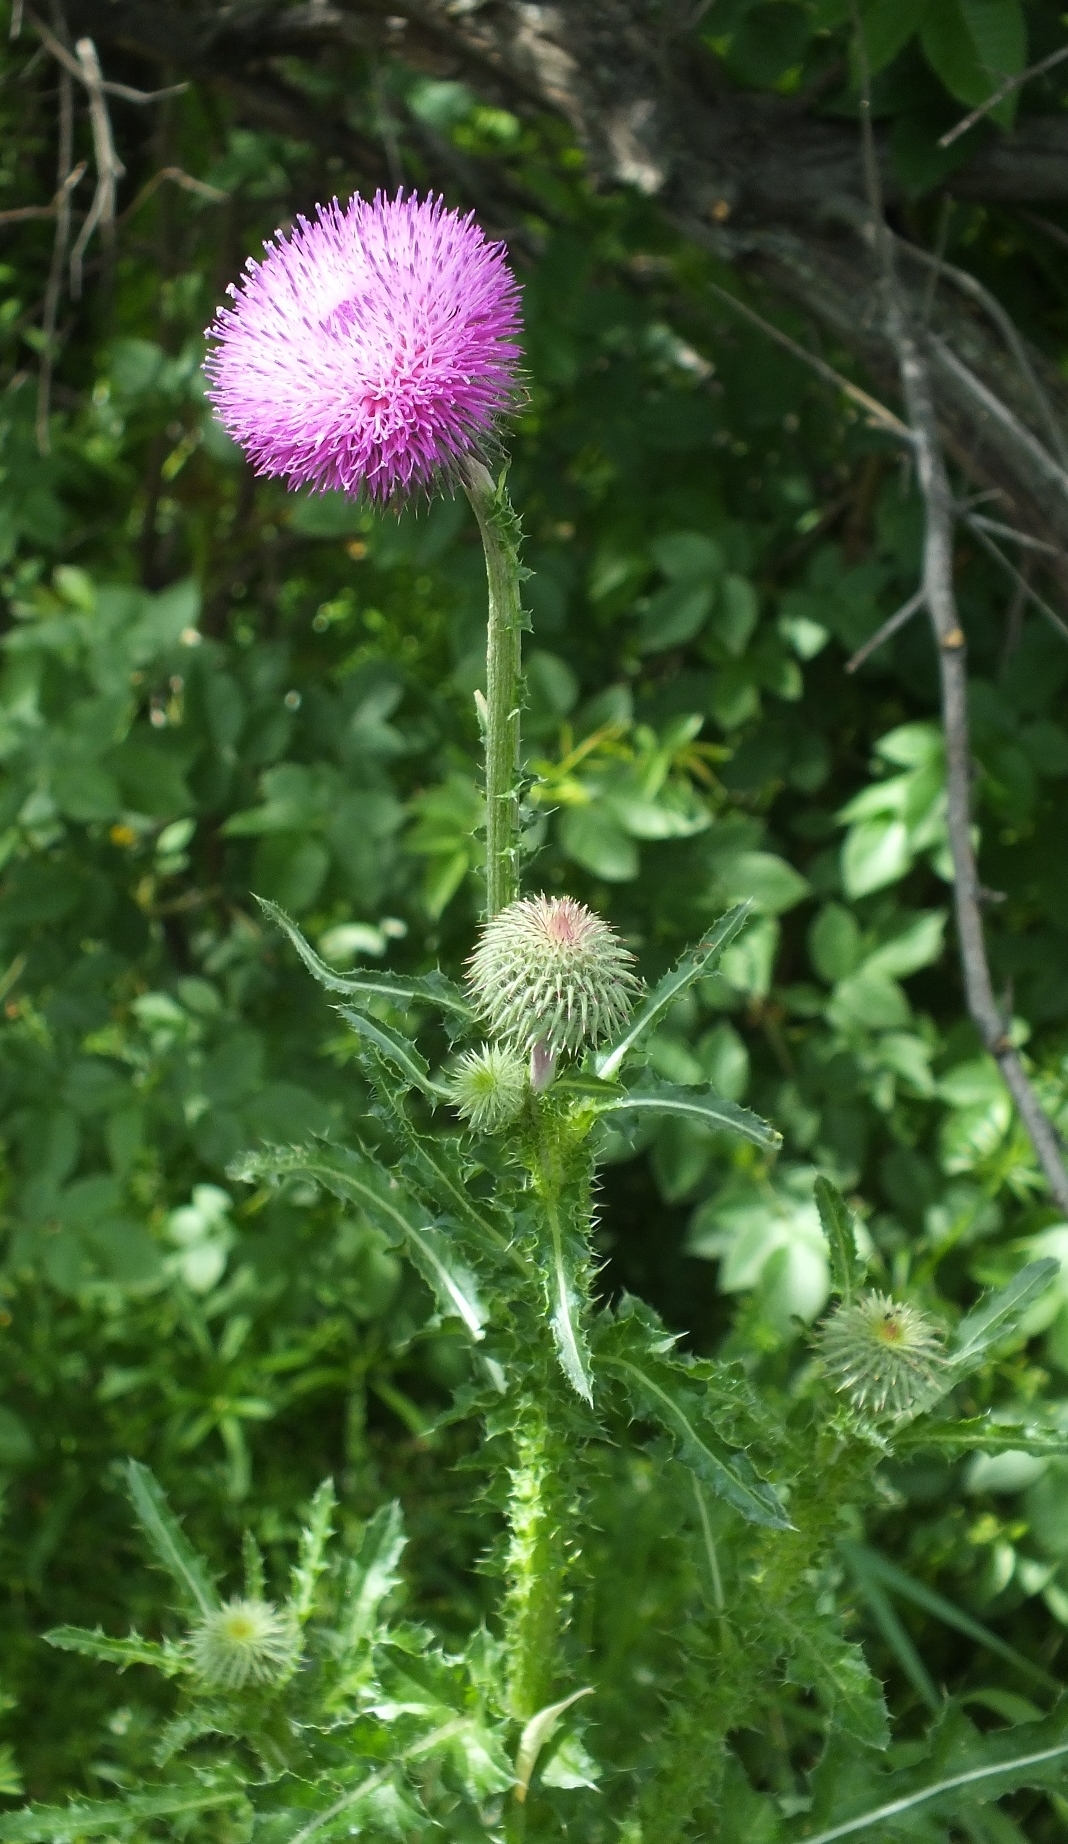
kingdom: Plantae
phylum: Tracheophyta
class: Magnoliopsida
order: Asterales
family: Asteraceae
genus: Carduus
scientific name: Carduus uncinatus
